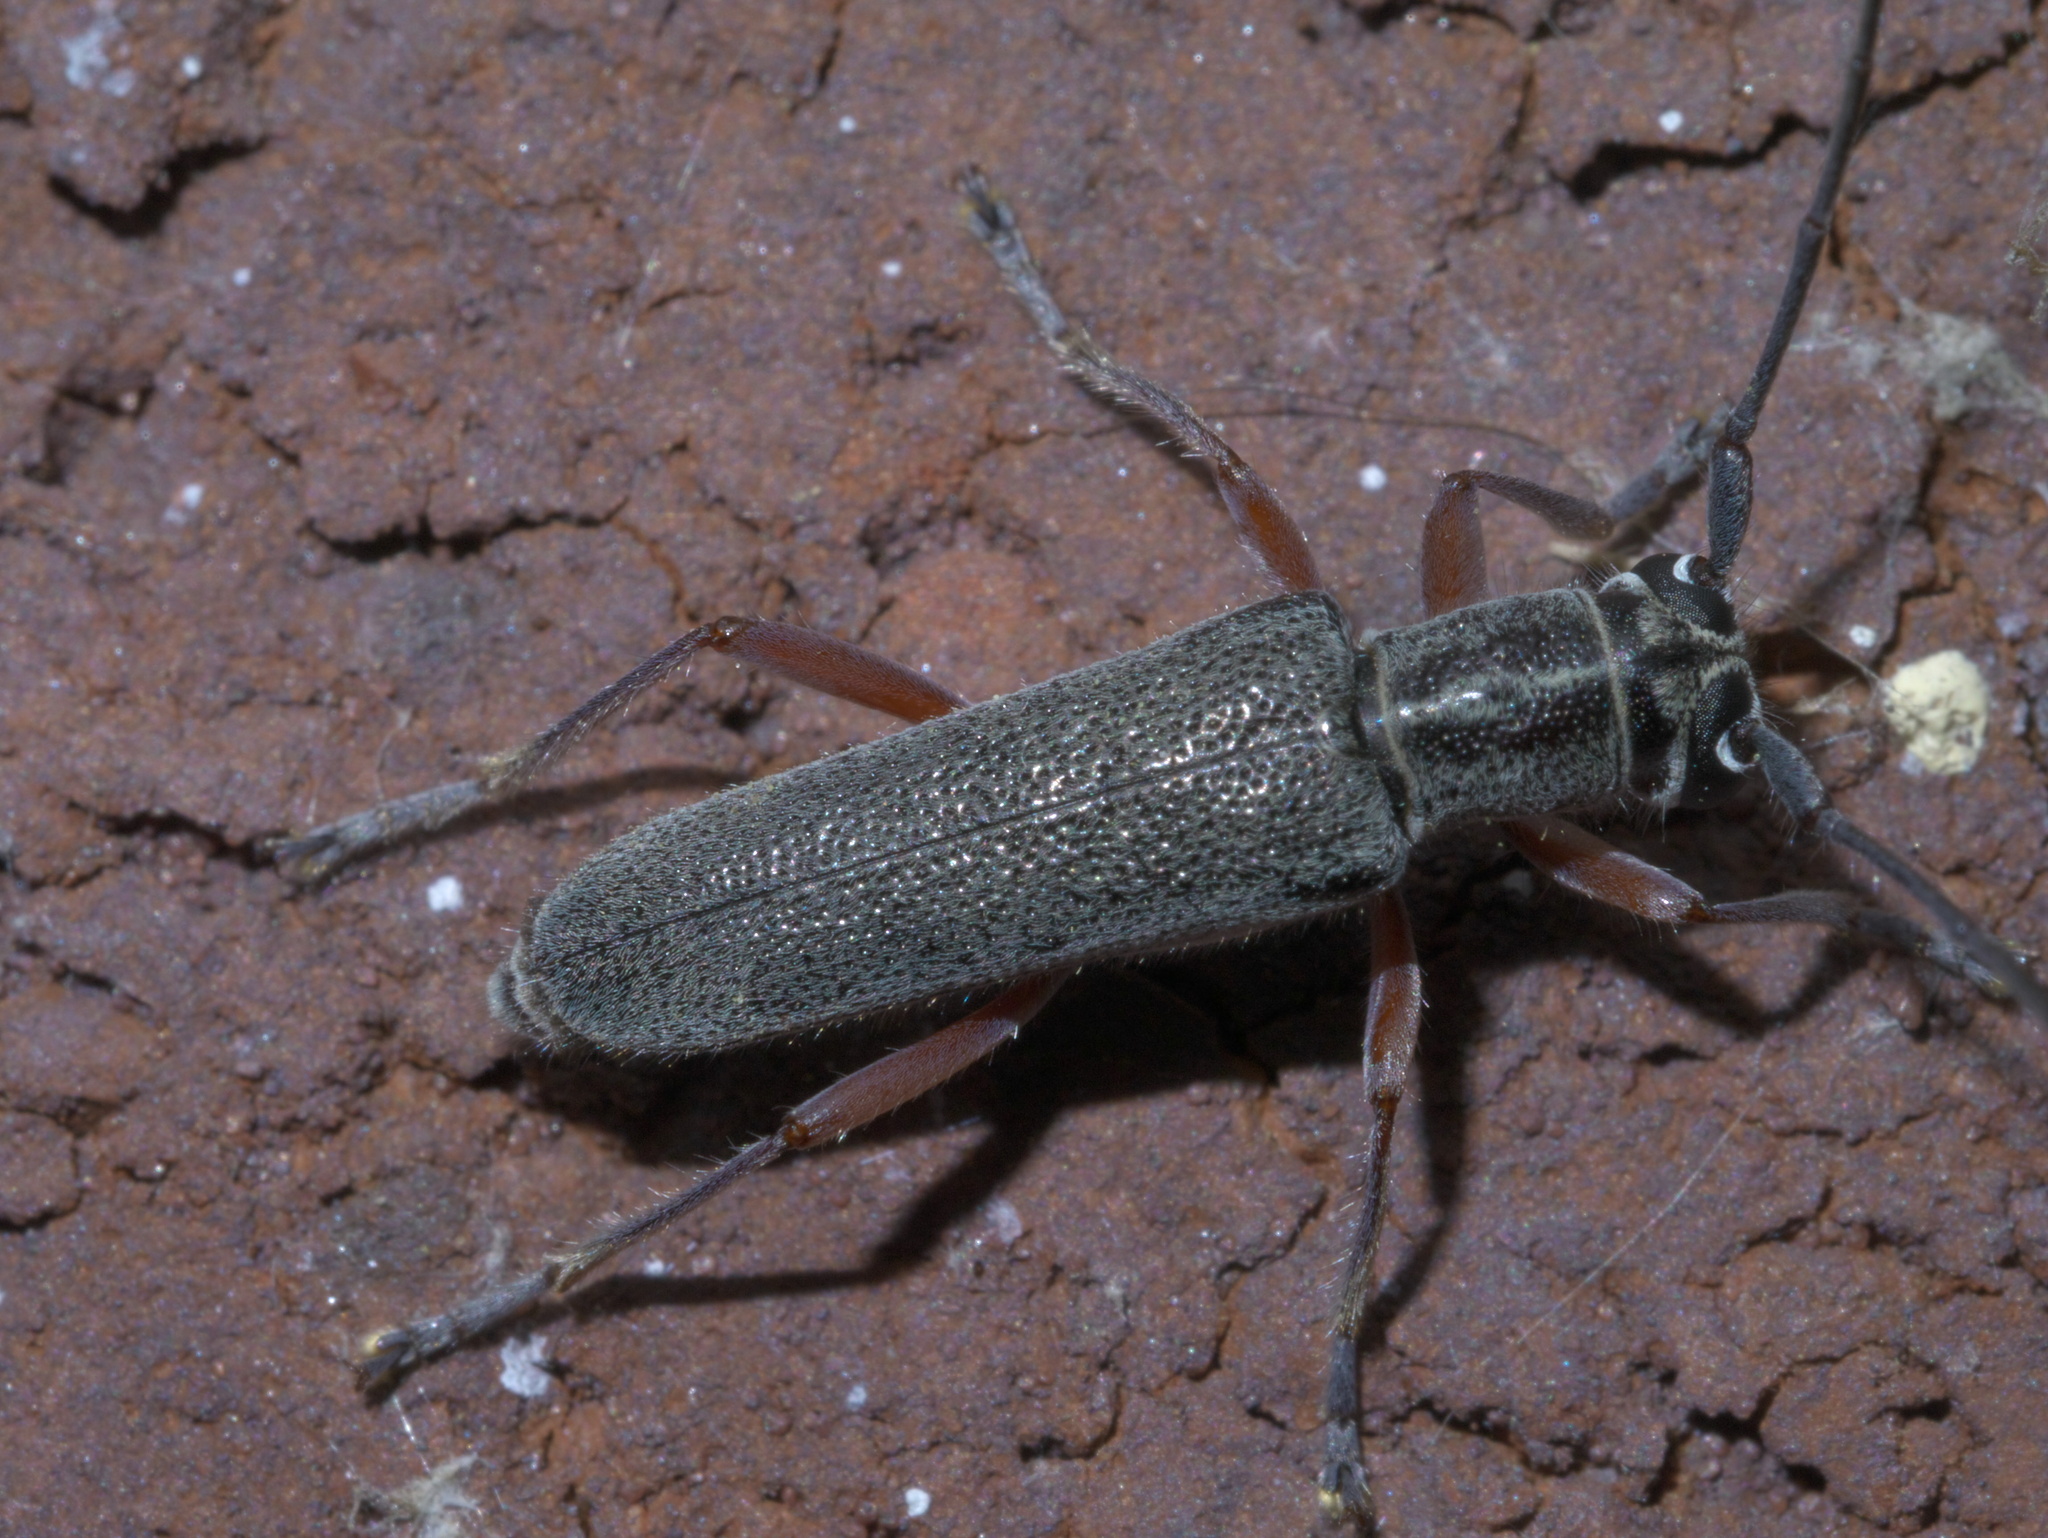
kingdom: Animalia
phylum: Arthropoda
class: Insecta
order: Coleoptera
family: Cerambycidae
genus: Saperda
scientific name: Saperda discoidea
